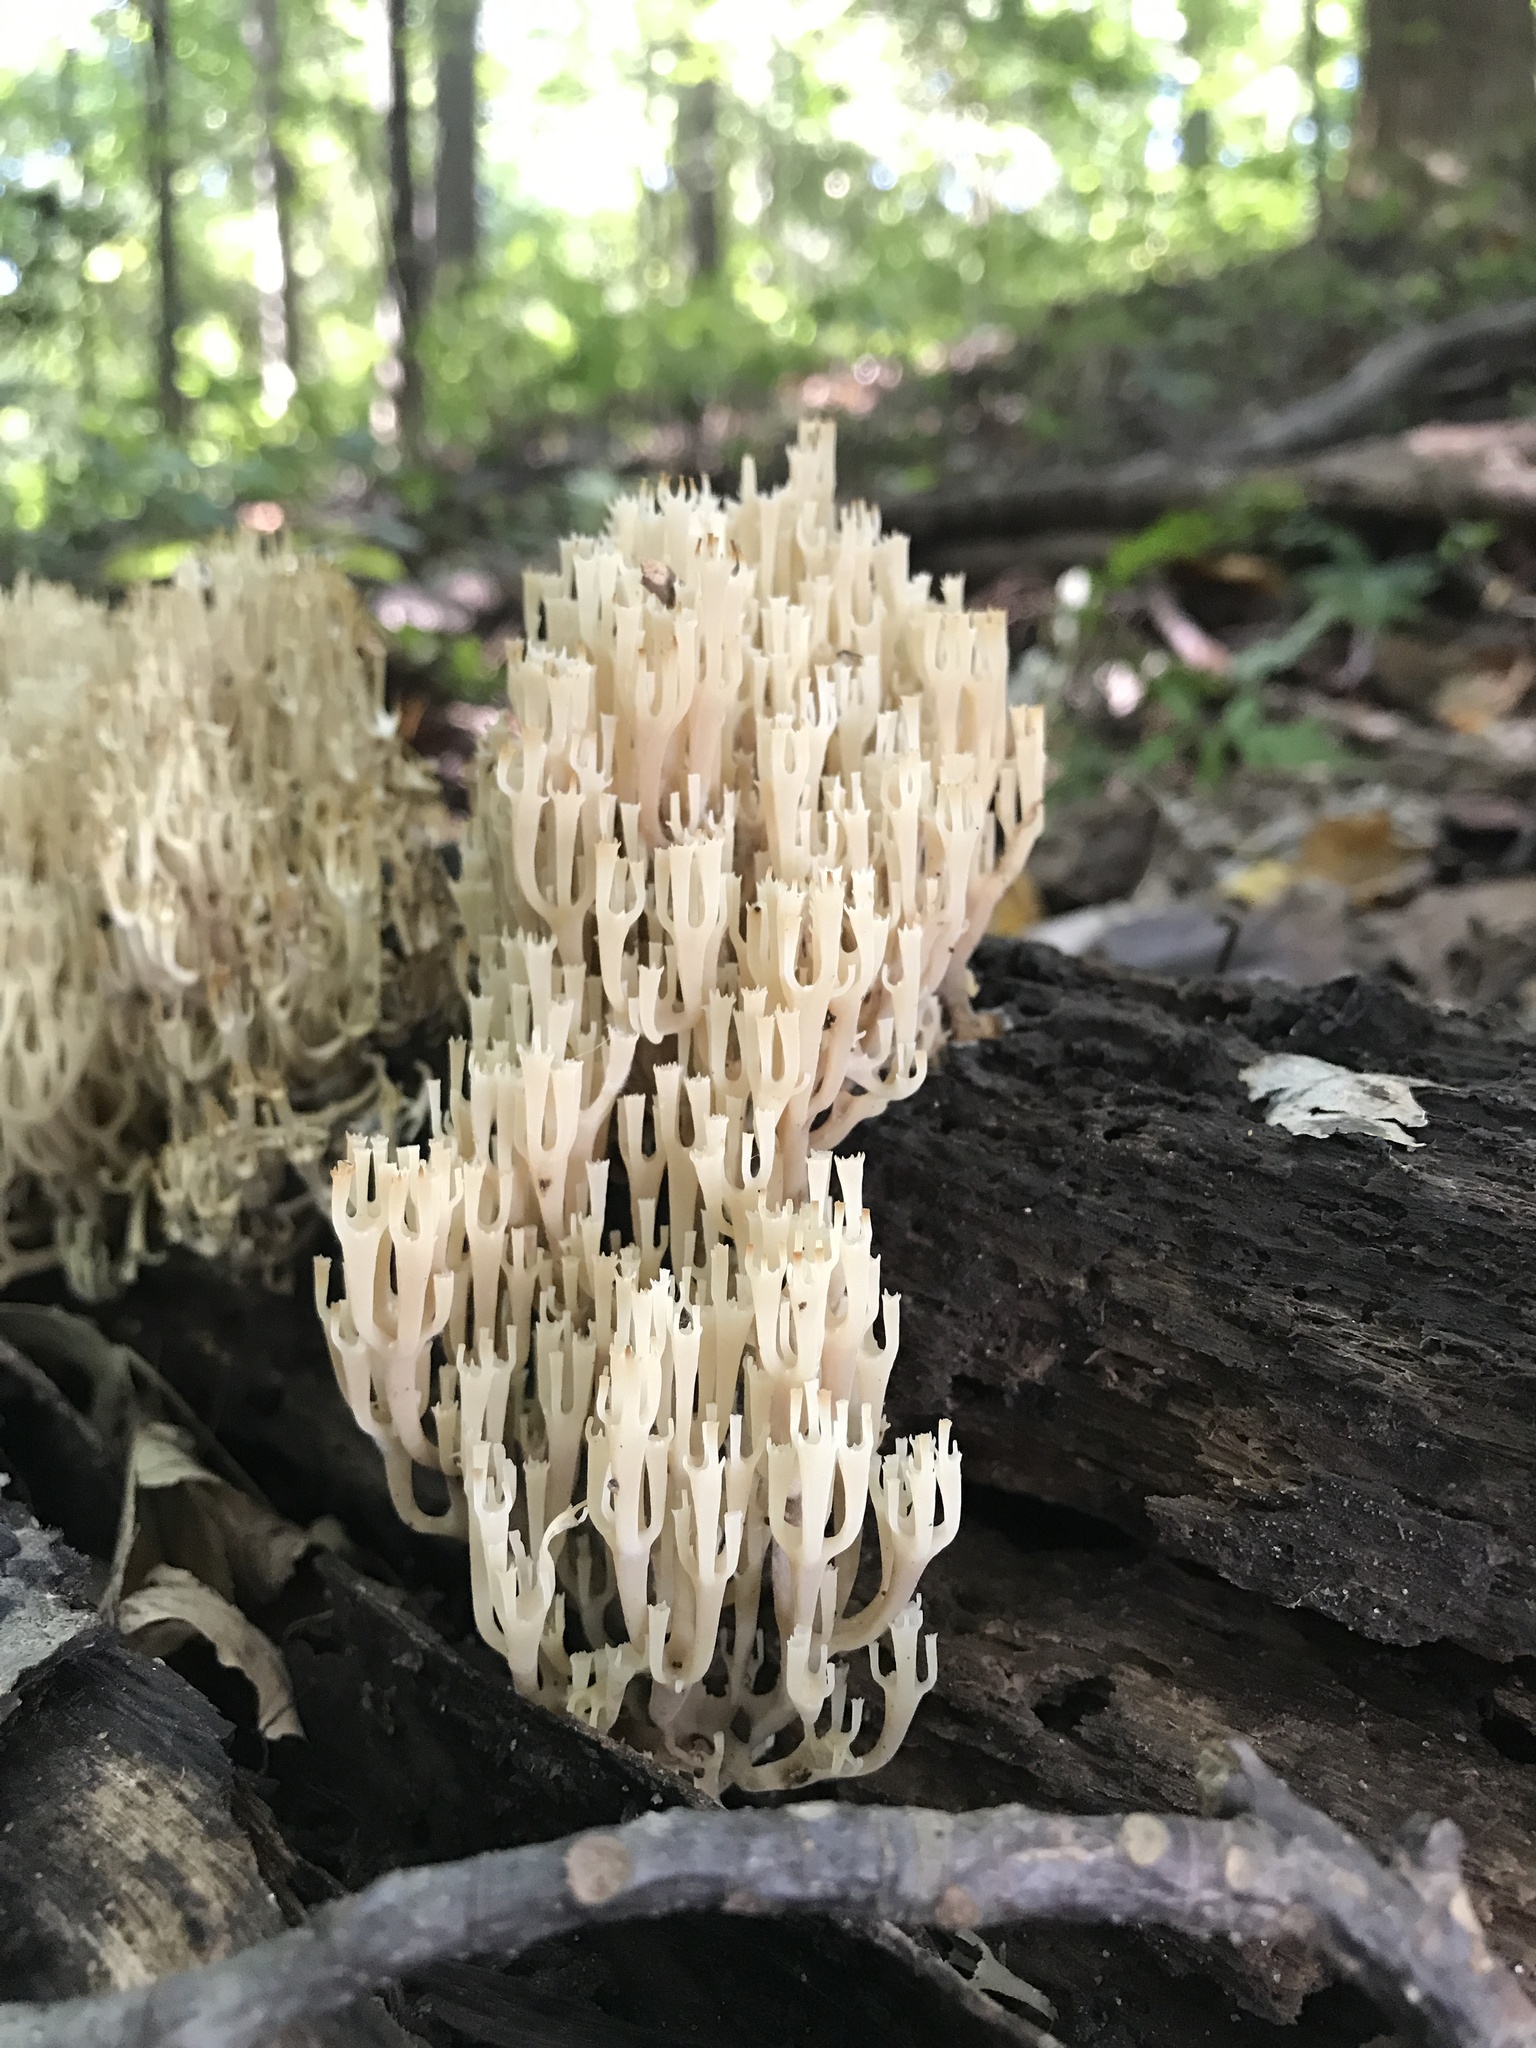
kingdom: Fungi
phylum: Basidiomycota
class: Agaricomycetes
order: Russulales
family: Auriscalpiaceae
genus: Artomyces
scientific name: Artomyces pyxidatus
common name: Crown-tipped coral fungus
